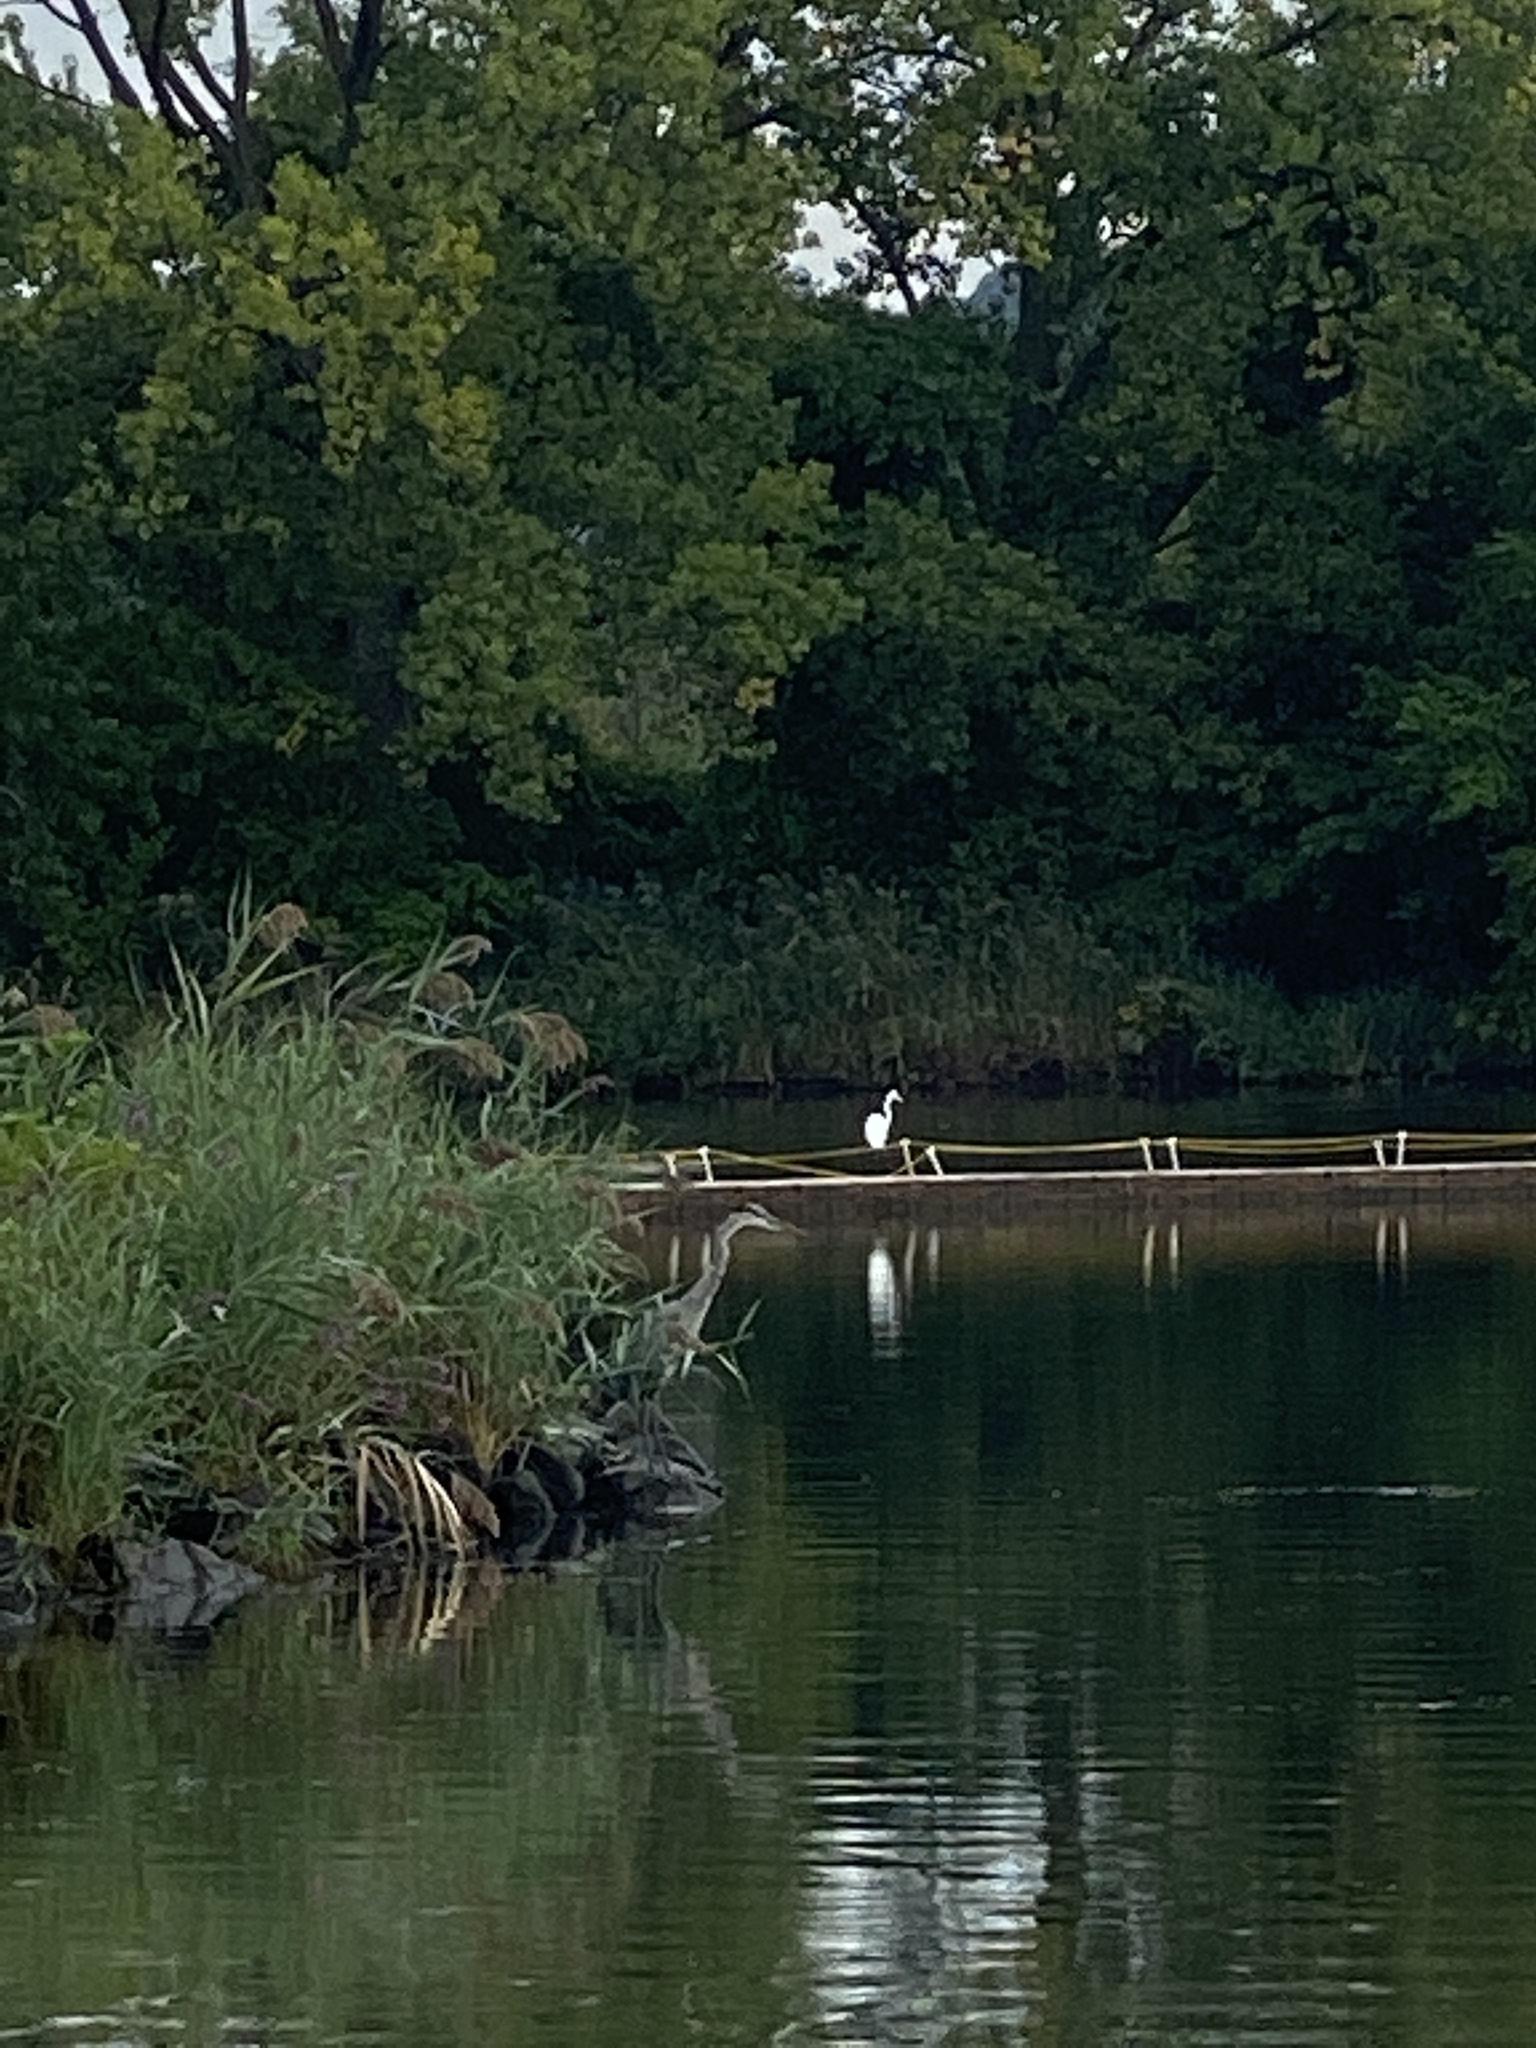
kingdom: Animalia
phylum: Chordata
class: Aves
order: Pelecaniformes
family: Ardeidae
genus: Ardea
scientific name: Ardea alba
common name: Great egret
